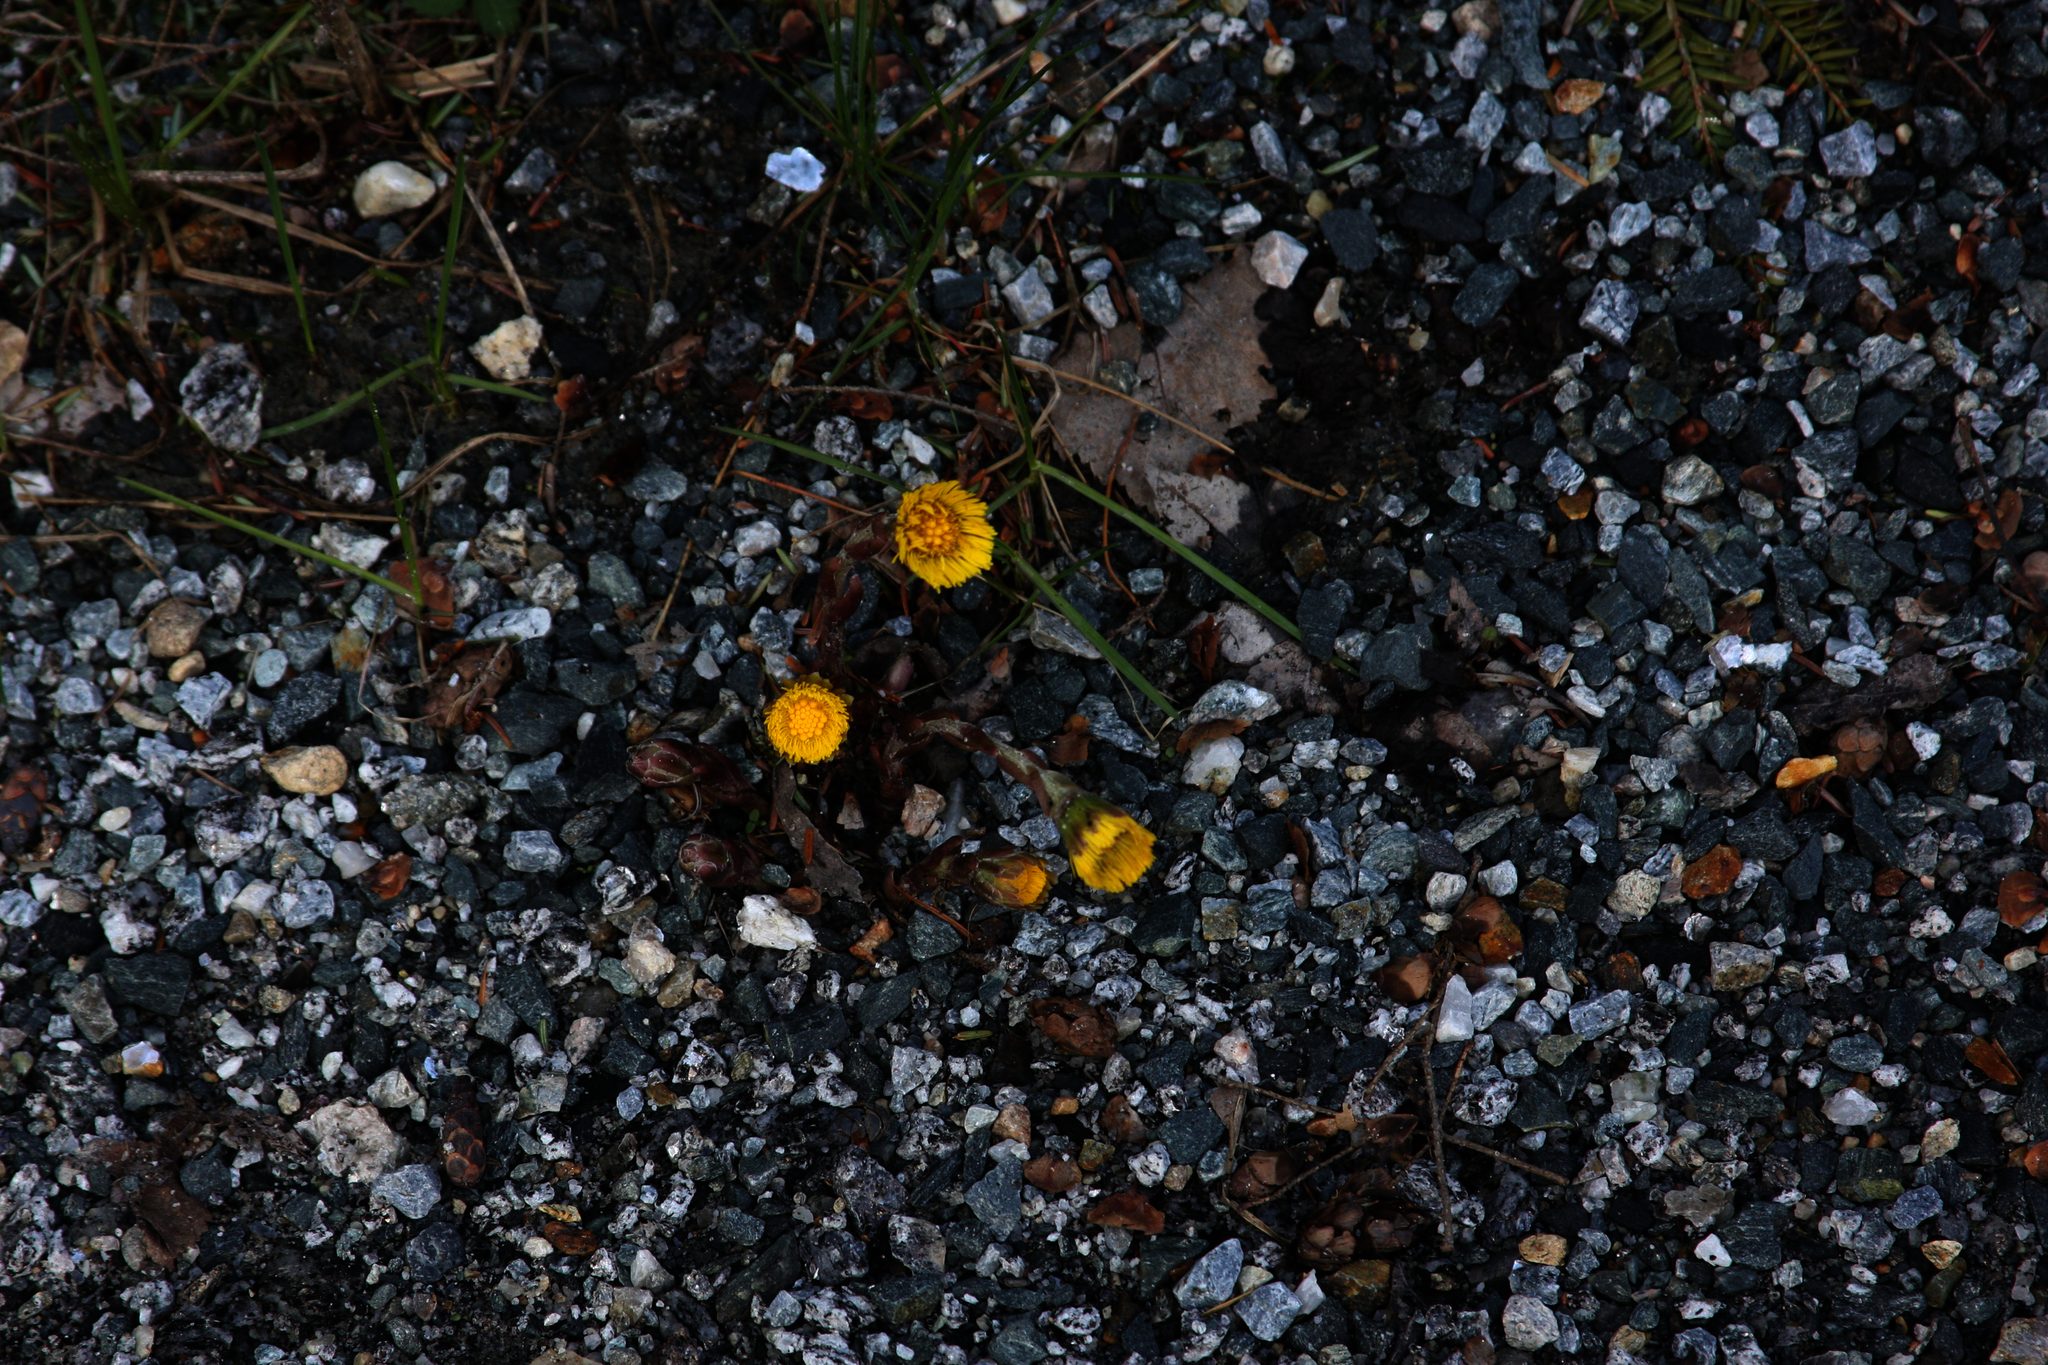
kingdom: Plantae
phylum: Tracheophyta
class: Magnoliopsida
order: Asterales
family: Asteraceae
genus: Tussilago
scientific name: Tussilago farfara
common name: Coltsfoot
